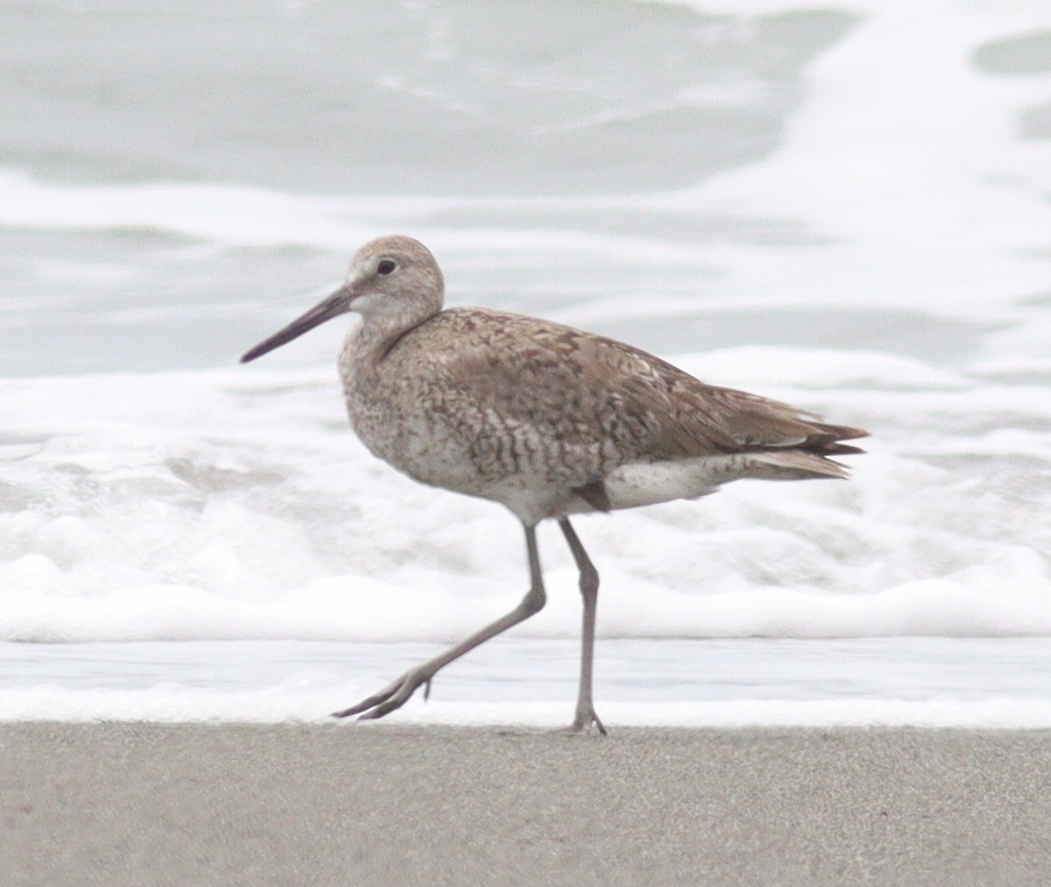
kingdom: Animalia
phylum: Chordata
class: Aves
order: Charadriiformes
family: Scolopacidae
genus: Tringa
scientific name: Tringa semipalmata
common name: Willet
